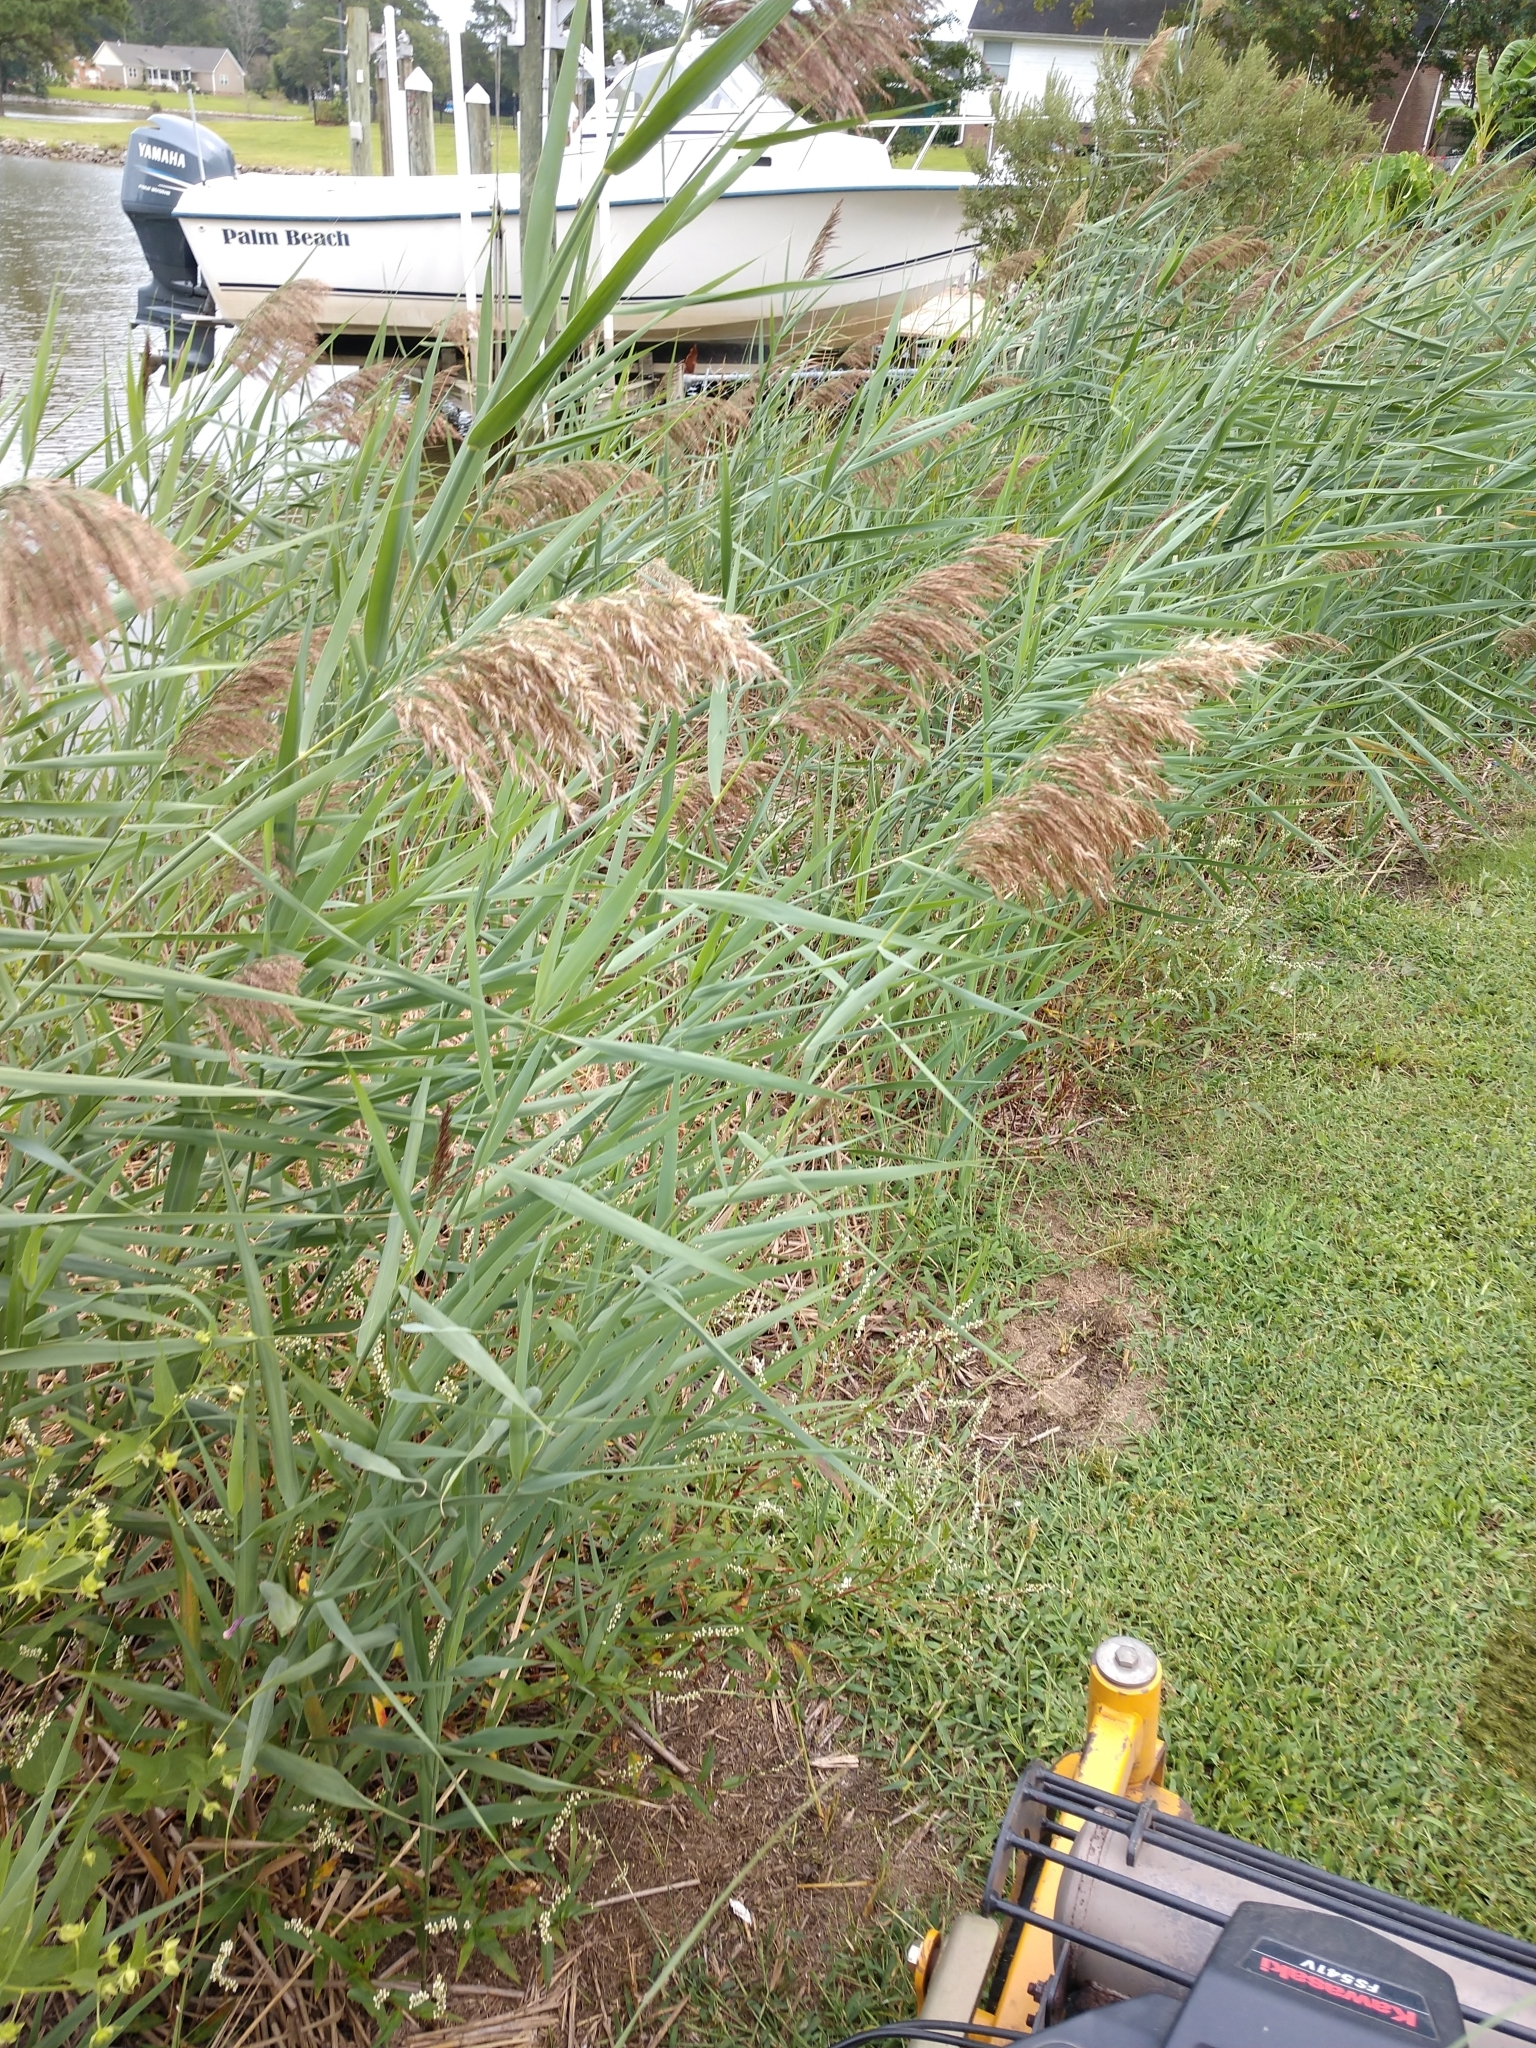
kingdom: Plantae
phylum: Tracheophyta
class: Liliopsida
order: Poales
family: Poaceae
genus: Phragmites
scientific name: Phragmites australis
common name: Common reed
